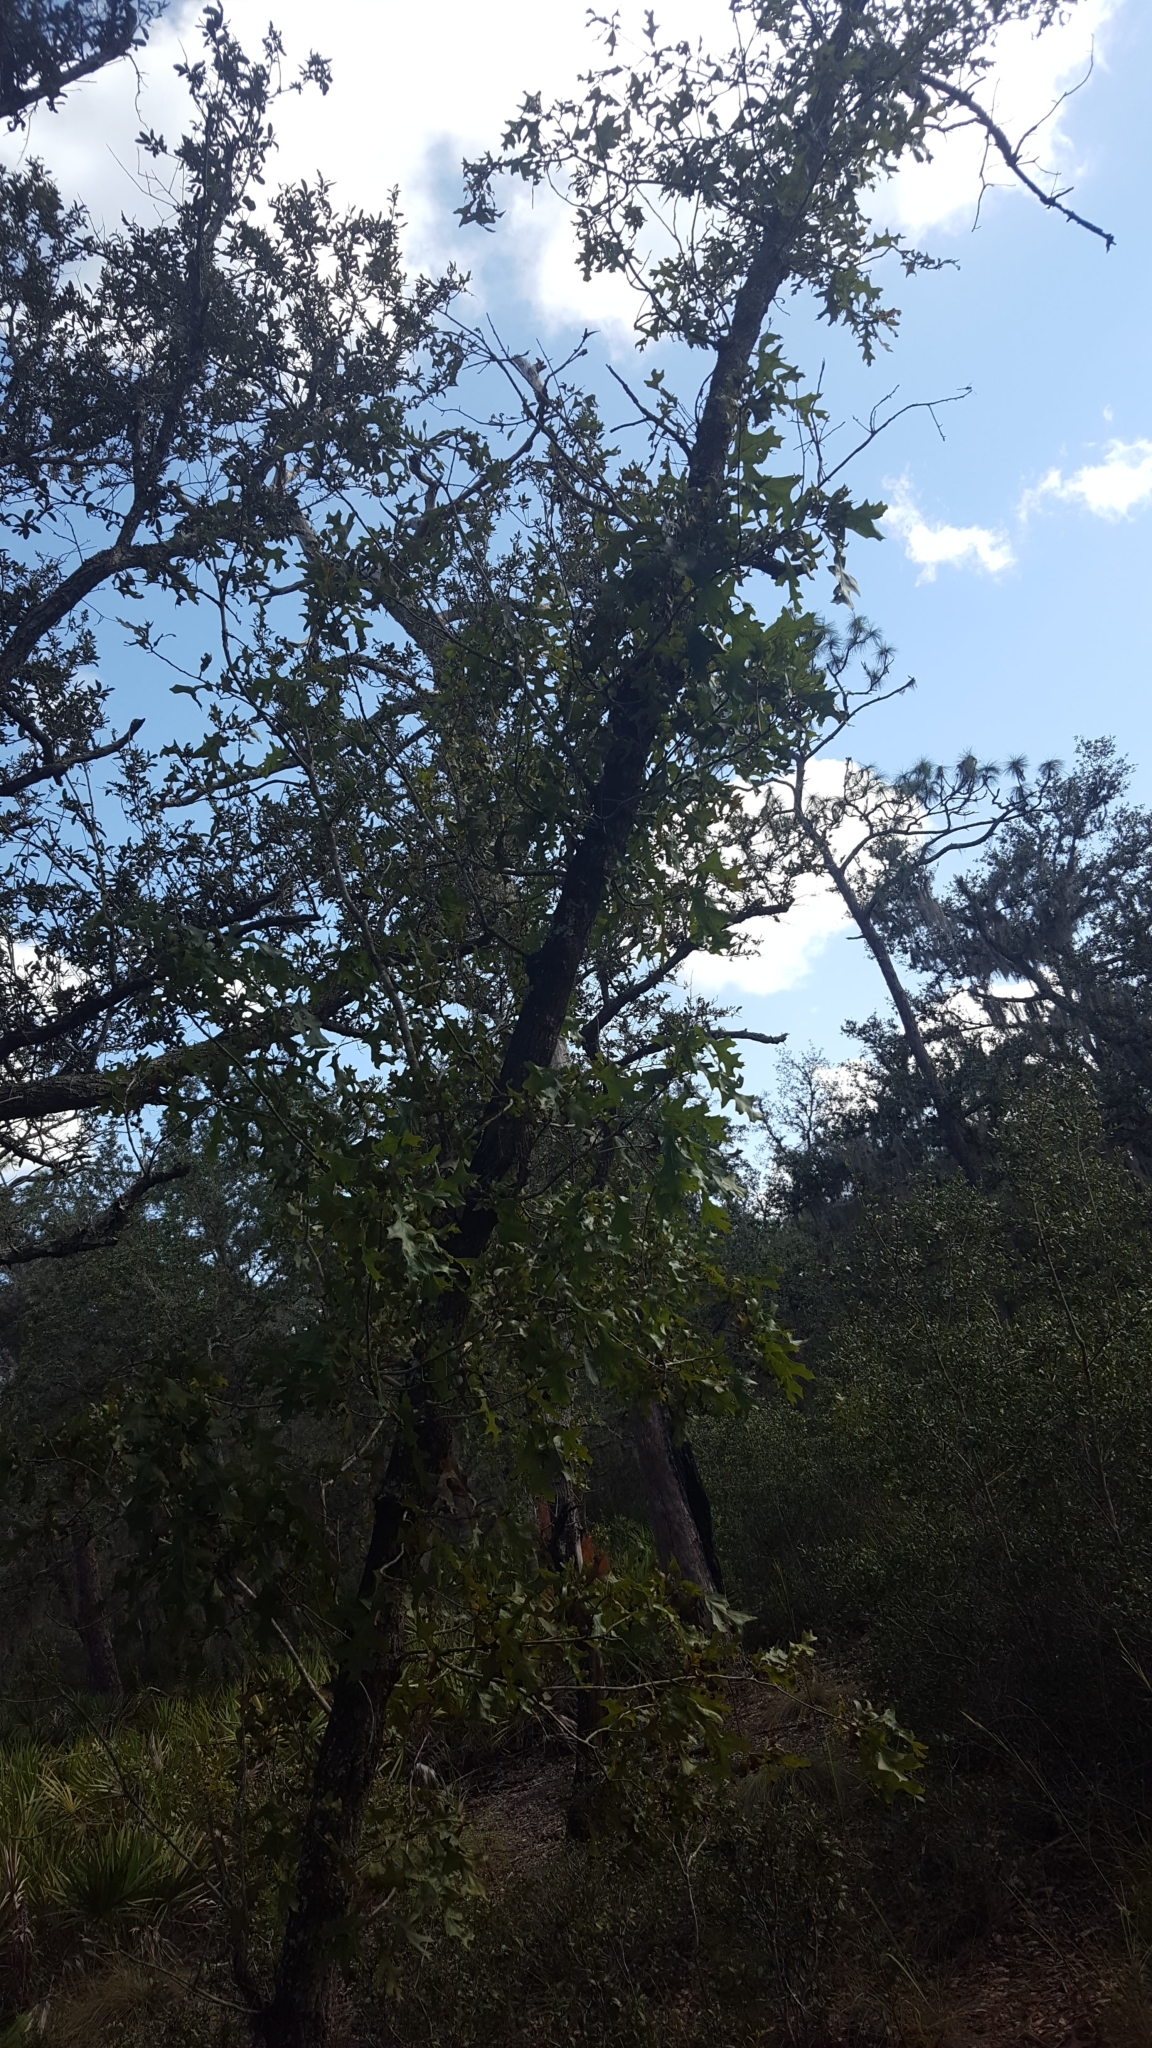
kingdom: Plantae
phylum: Tracheophyta
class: Magnoliopsida
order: Fagales
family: Fagaceae
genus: Quercus
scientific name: Quercus laevis
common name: Turkey oak
